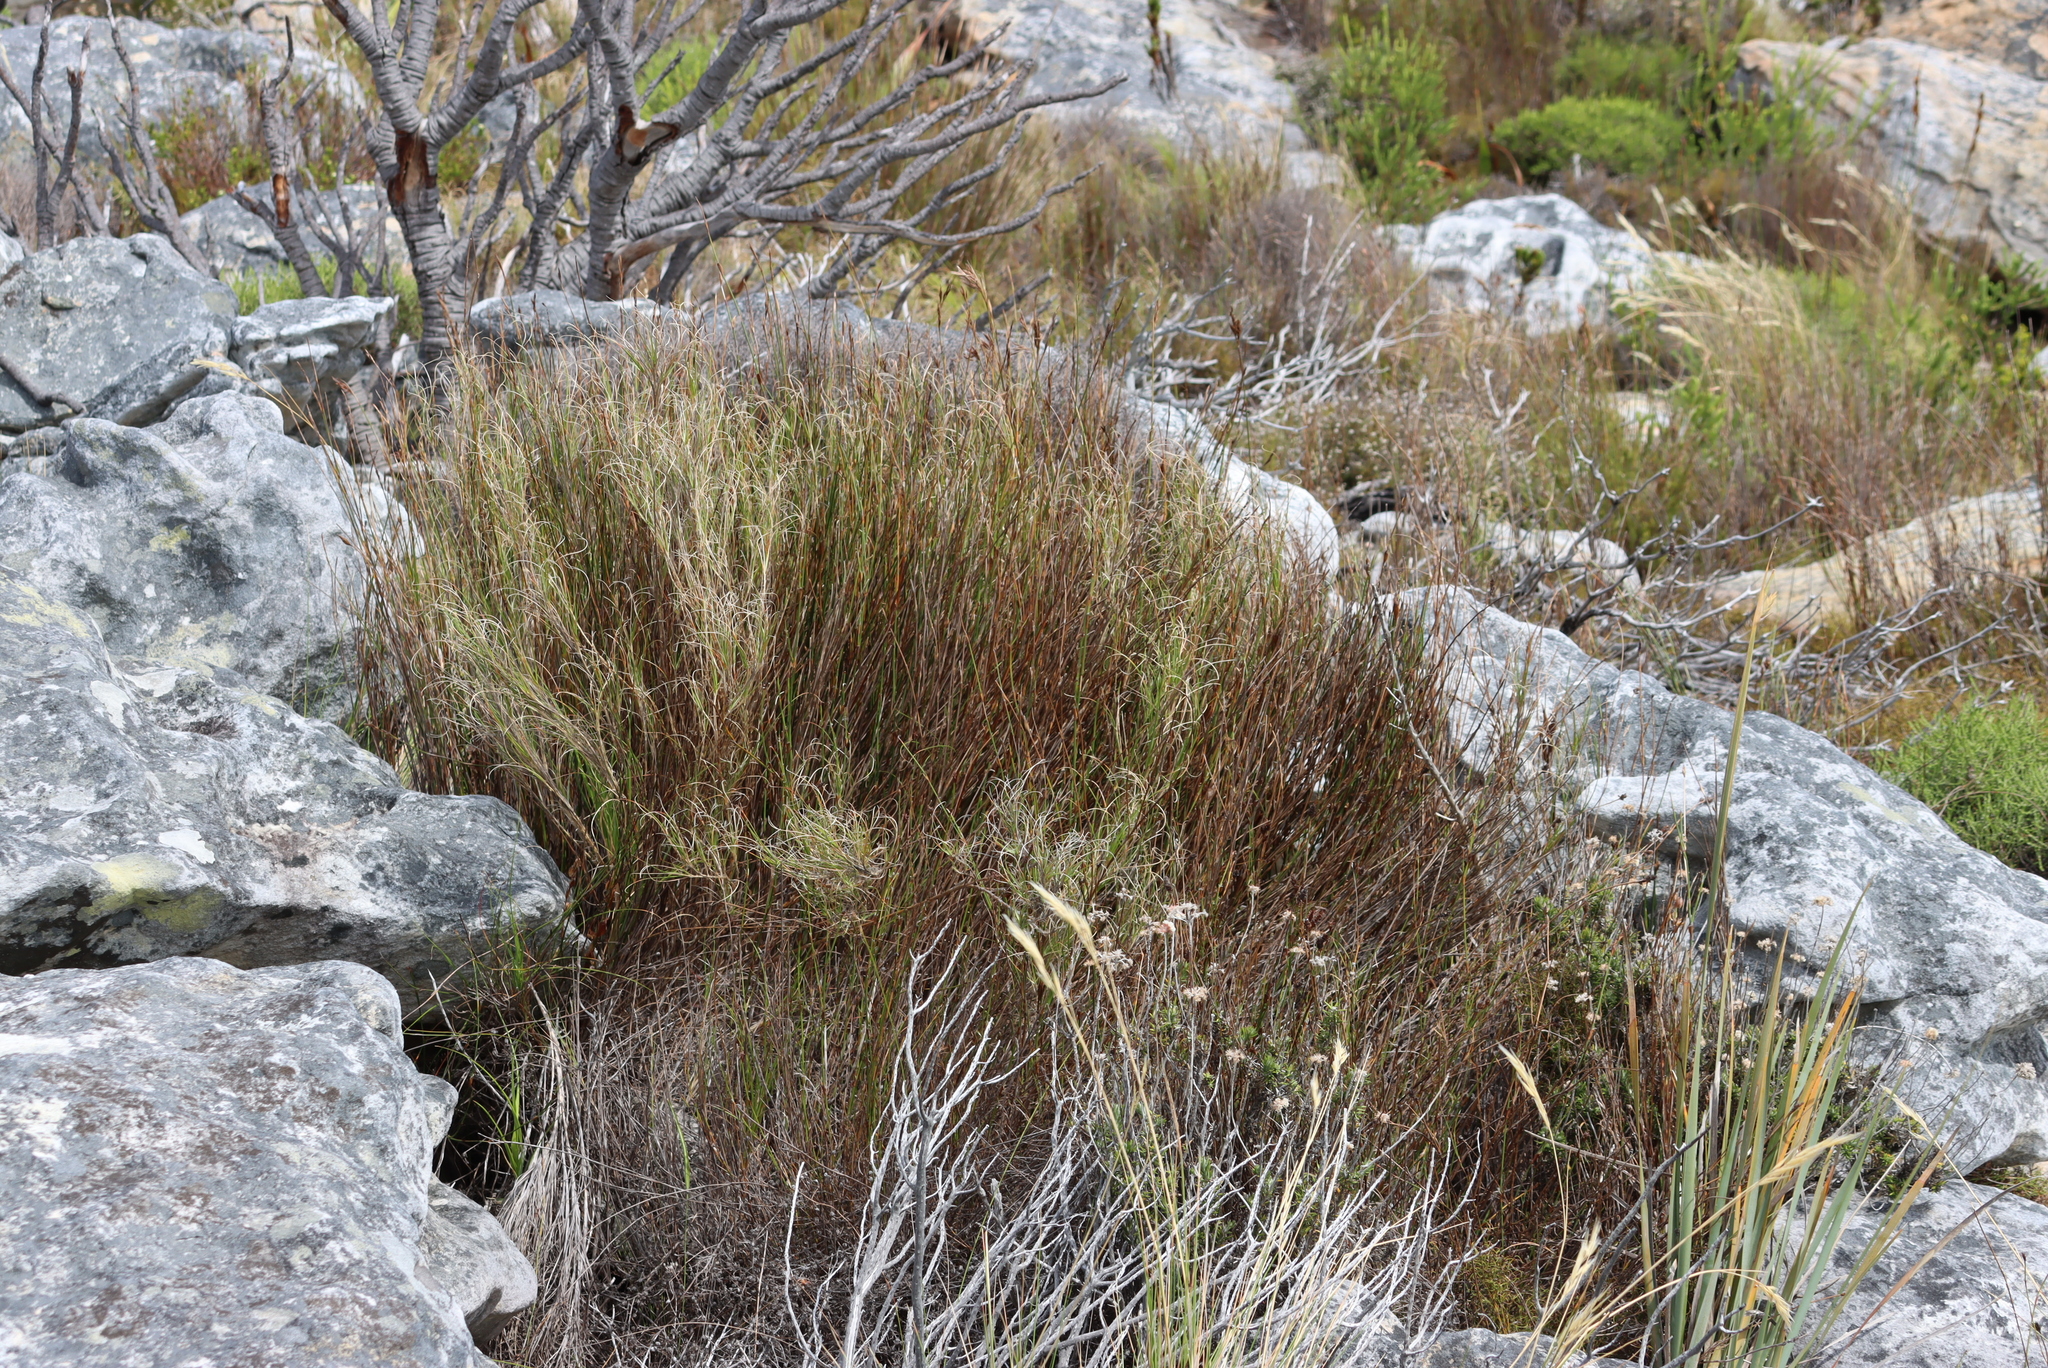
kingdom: Plantae
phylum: Tracheophyta
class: Liliopsida
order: Poales
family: Poaceae
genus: Pseudopentameris
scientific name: Pseudopentameris macrantha
